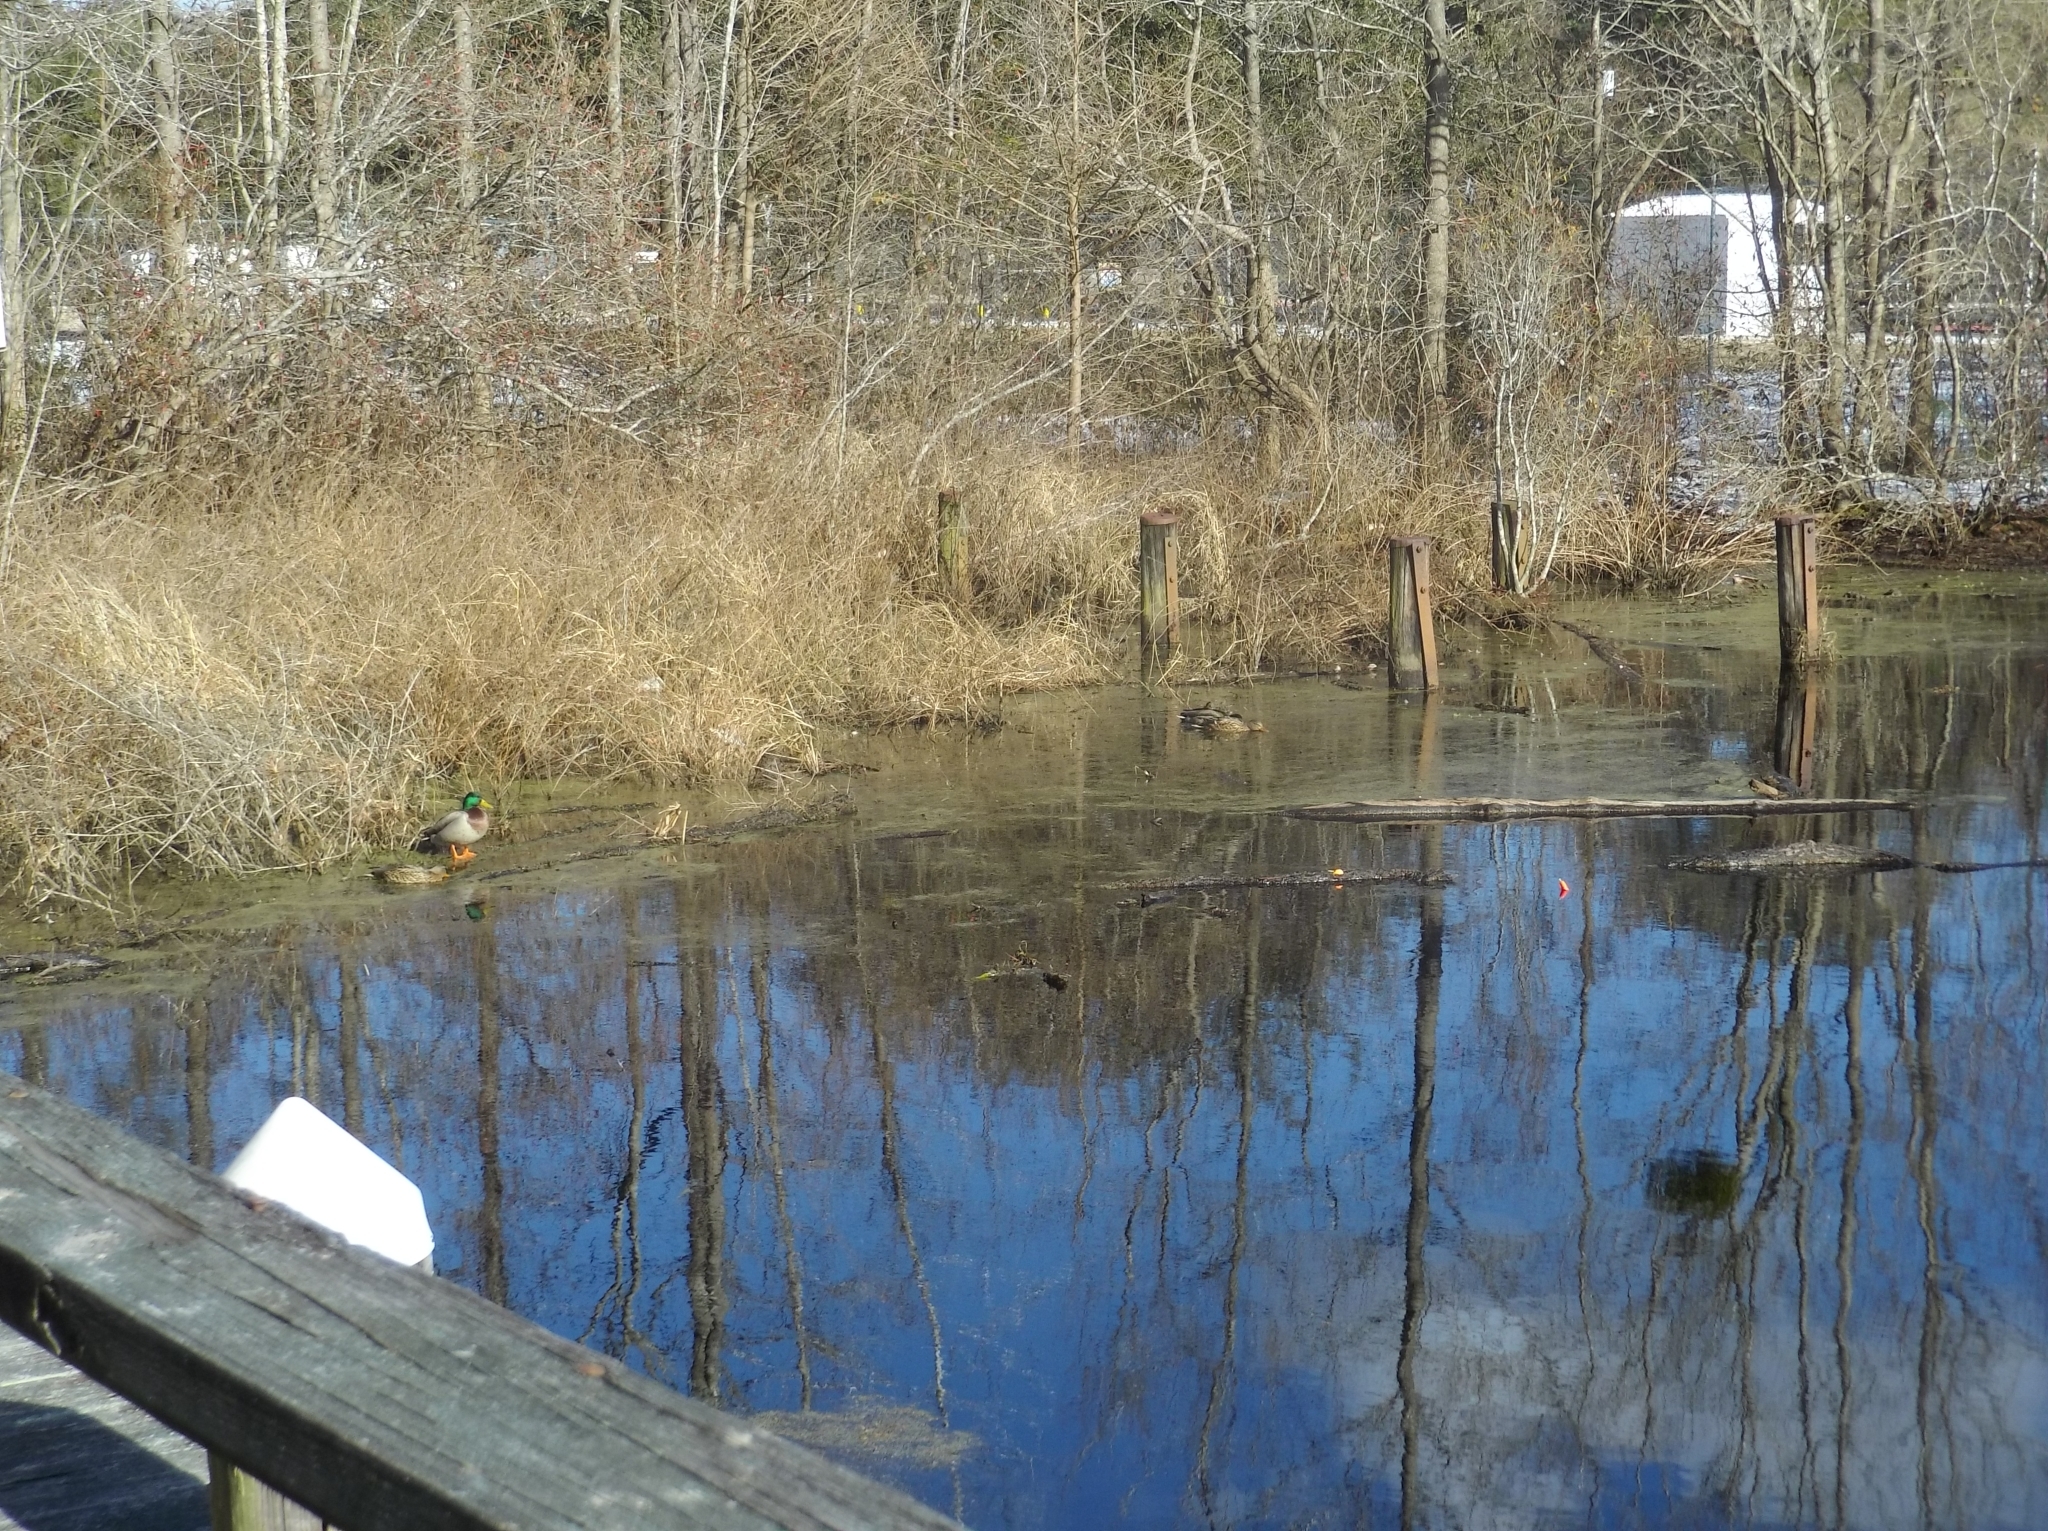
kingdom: Animalia
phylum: Chordata
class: Aves
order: Anseriformes
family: Anatidae
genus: Anas
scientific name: Anas platyrhynchos
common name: Mallard
